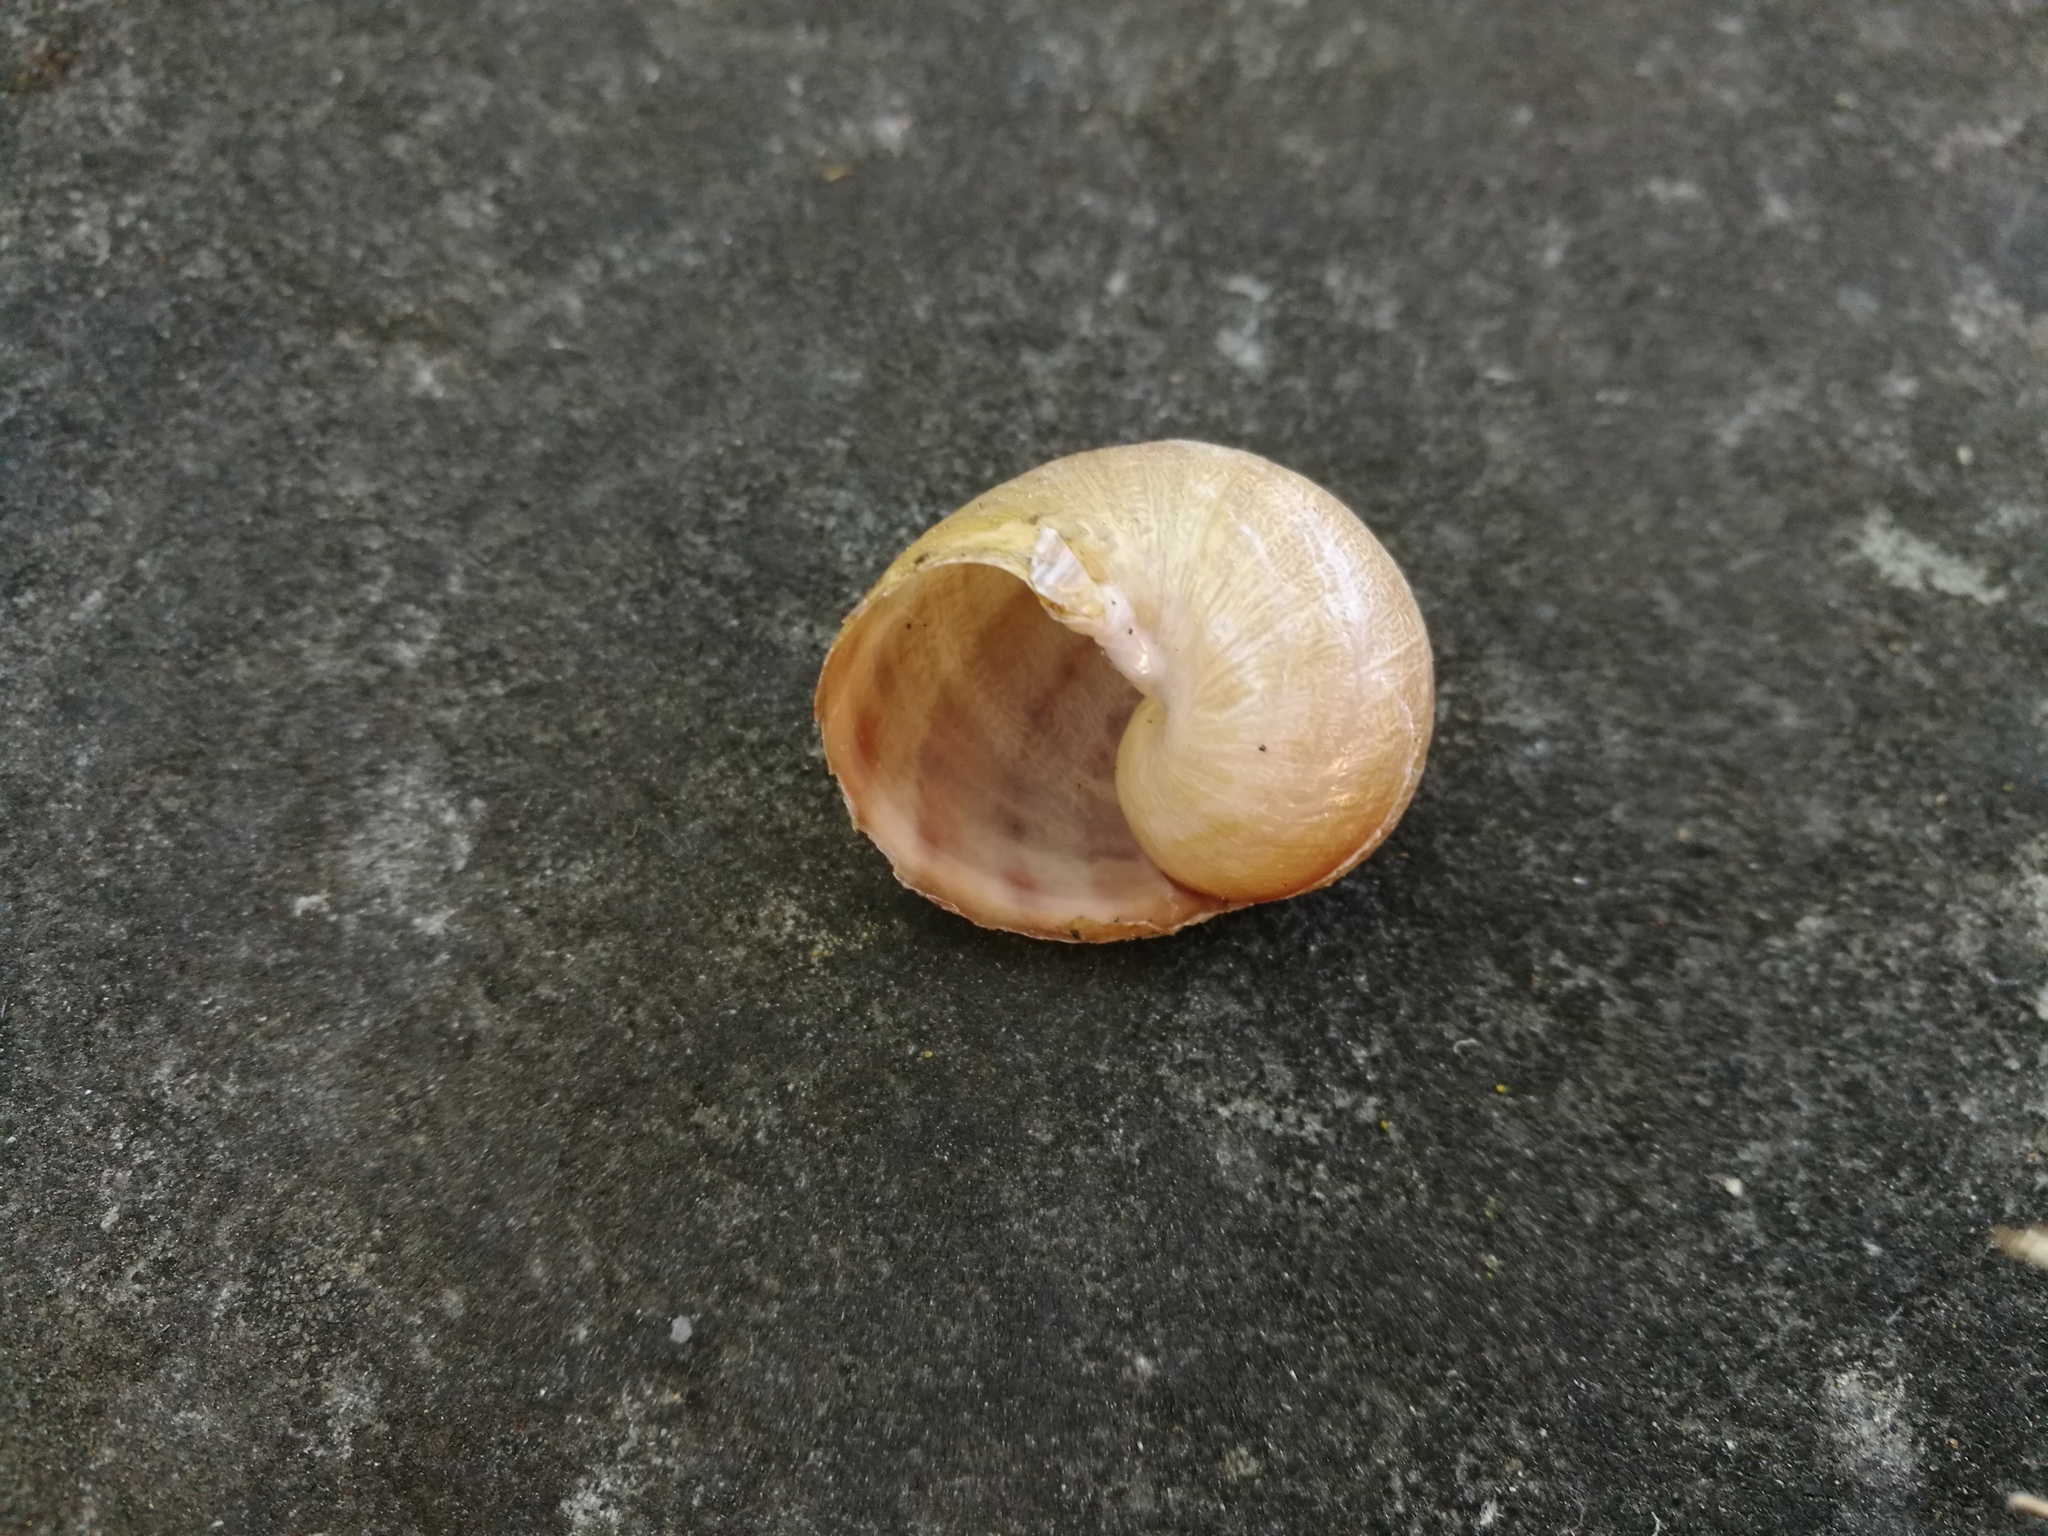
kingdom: Animalia
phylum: Mollusca
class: Gastropoda
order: Stylommatophora
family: Helicidae
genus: Cornu
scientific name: Cornu aspersum
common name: Brown garden snail
